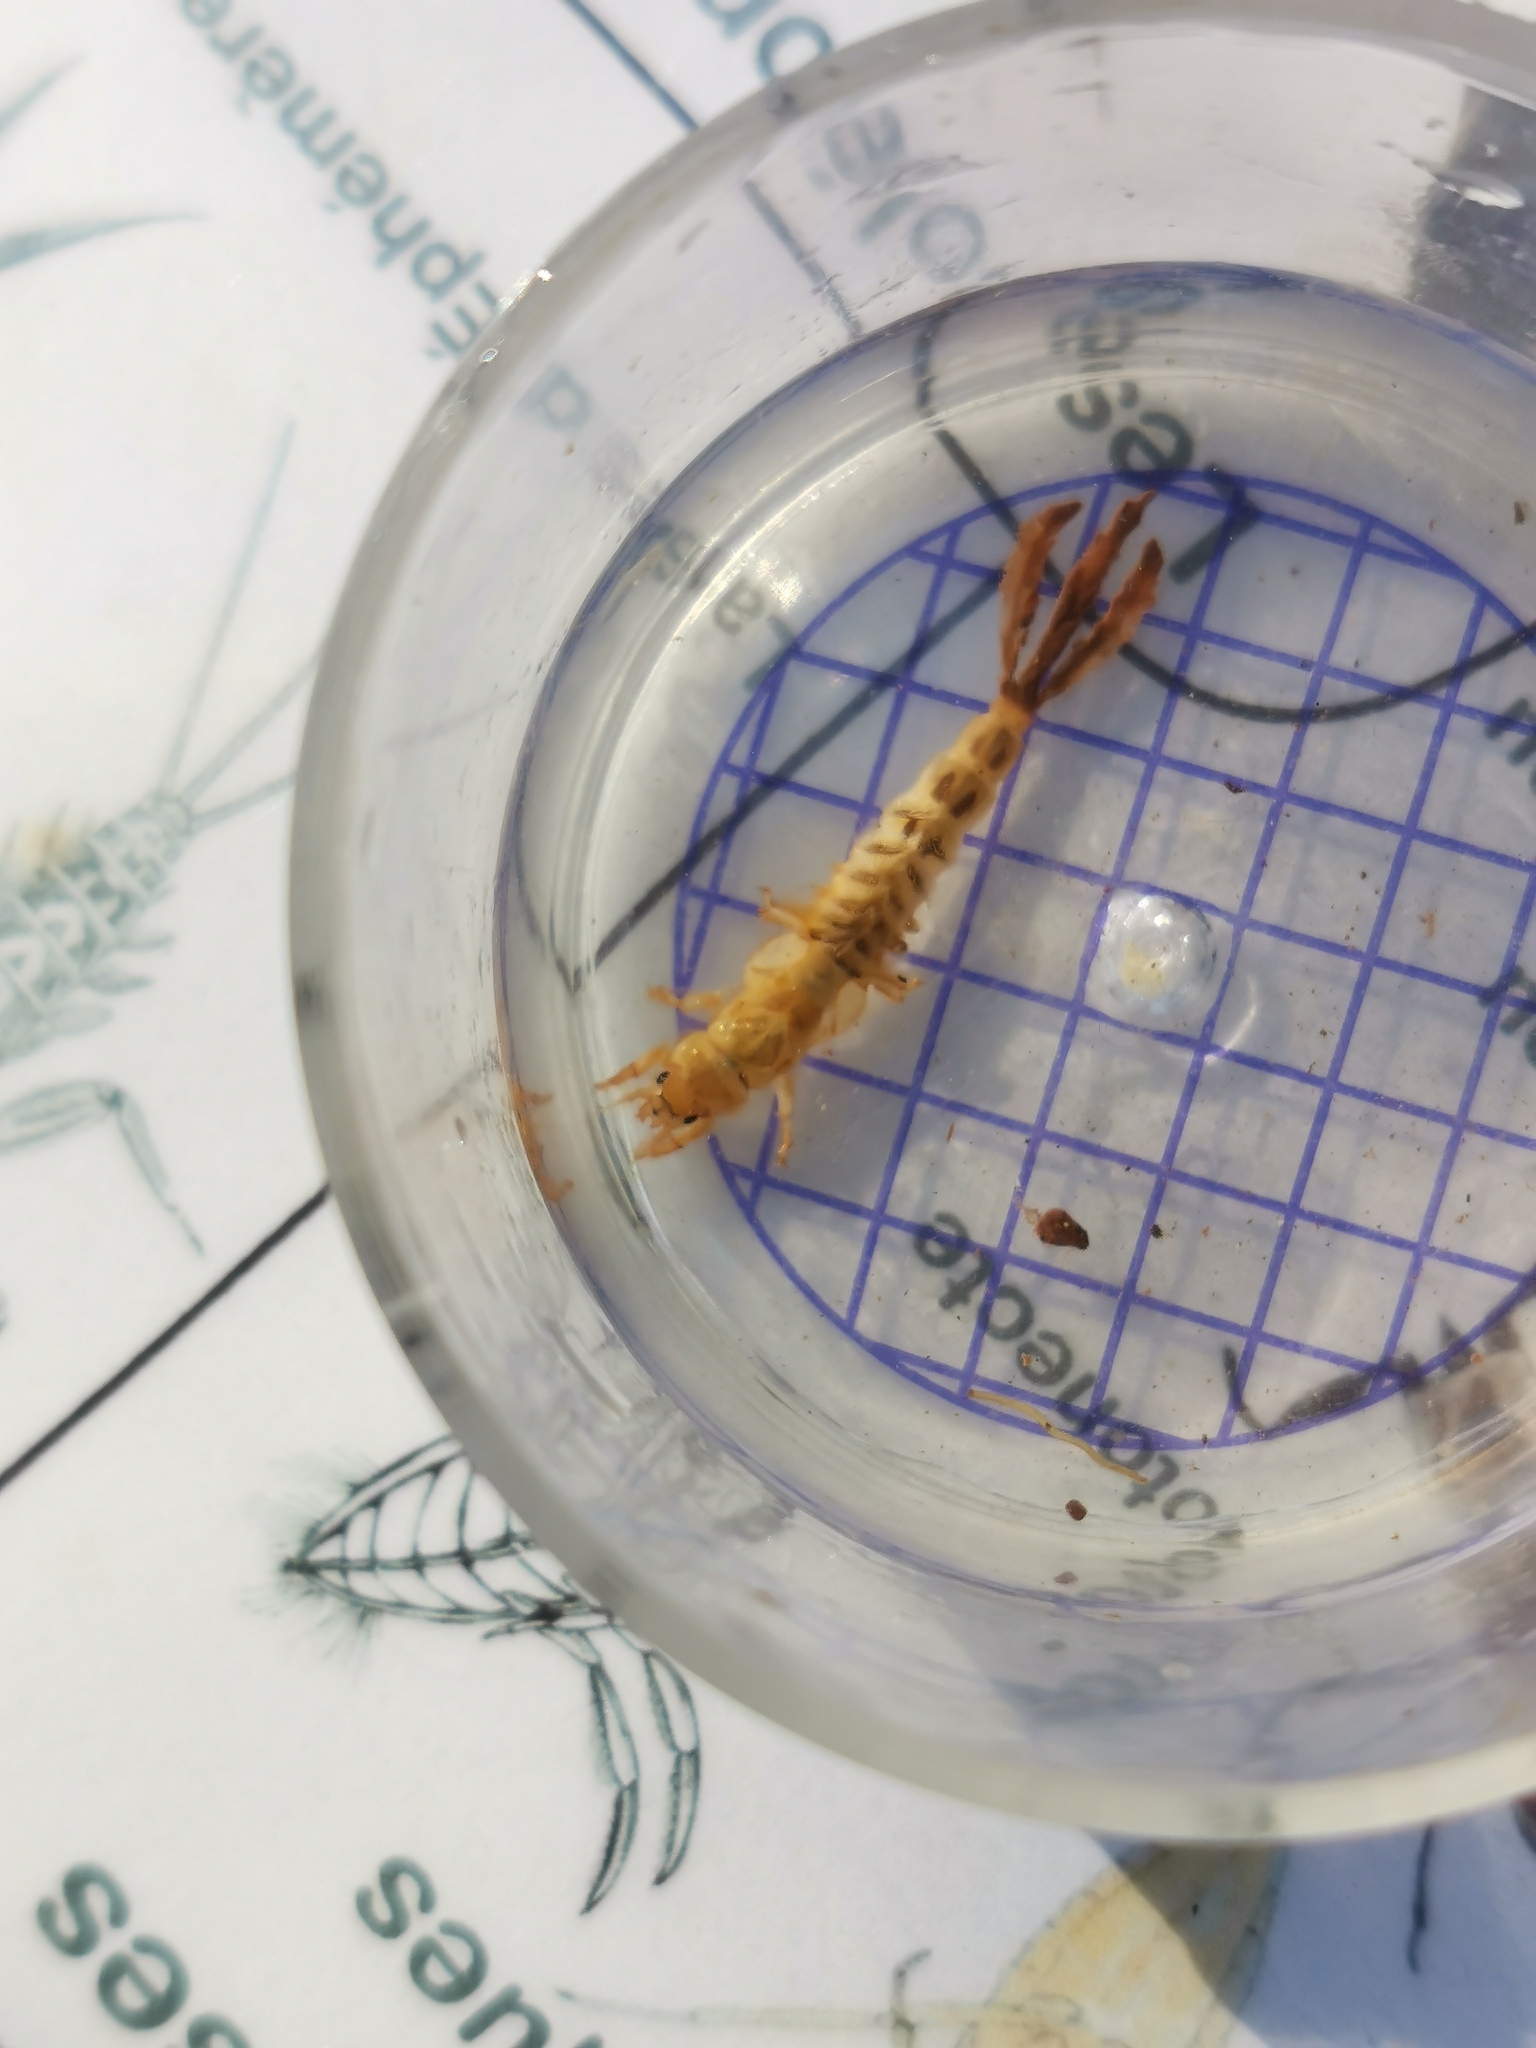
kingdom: Animalia
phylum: Arthropoda
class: Insecta
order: Ephemeroptera
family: Ephemeridae
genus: Ephemera
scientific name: Ephemera danica
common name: Green dun
